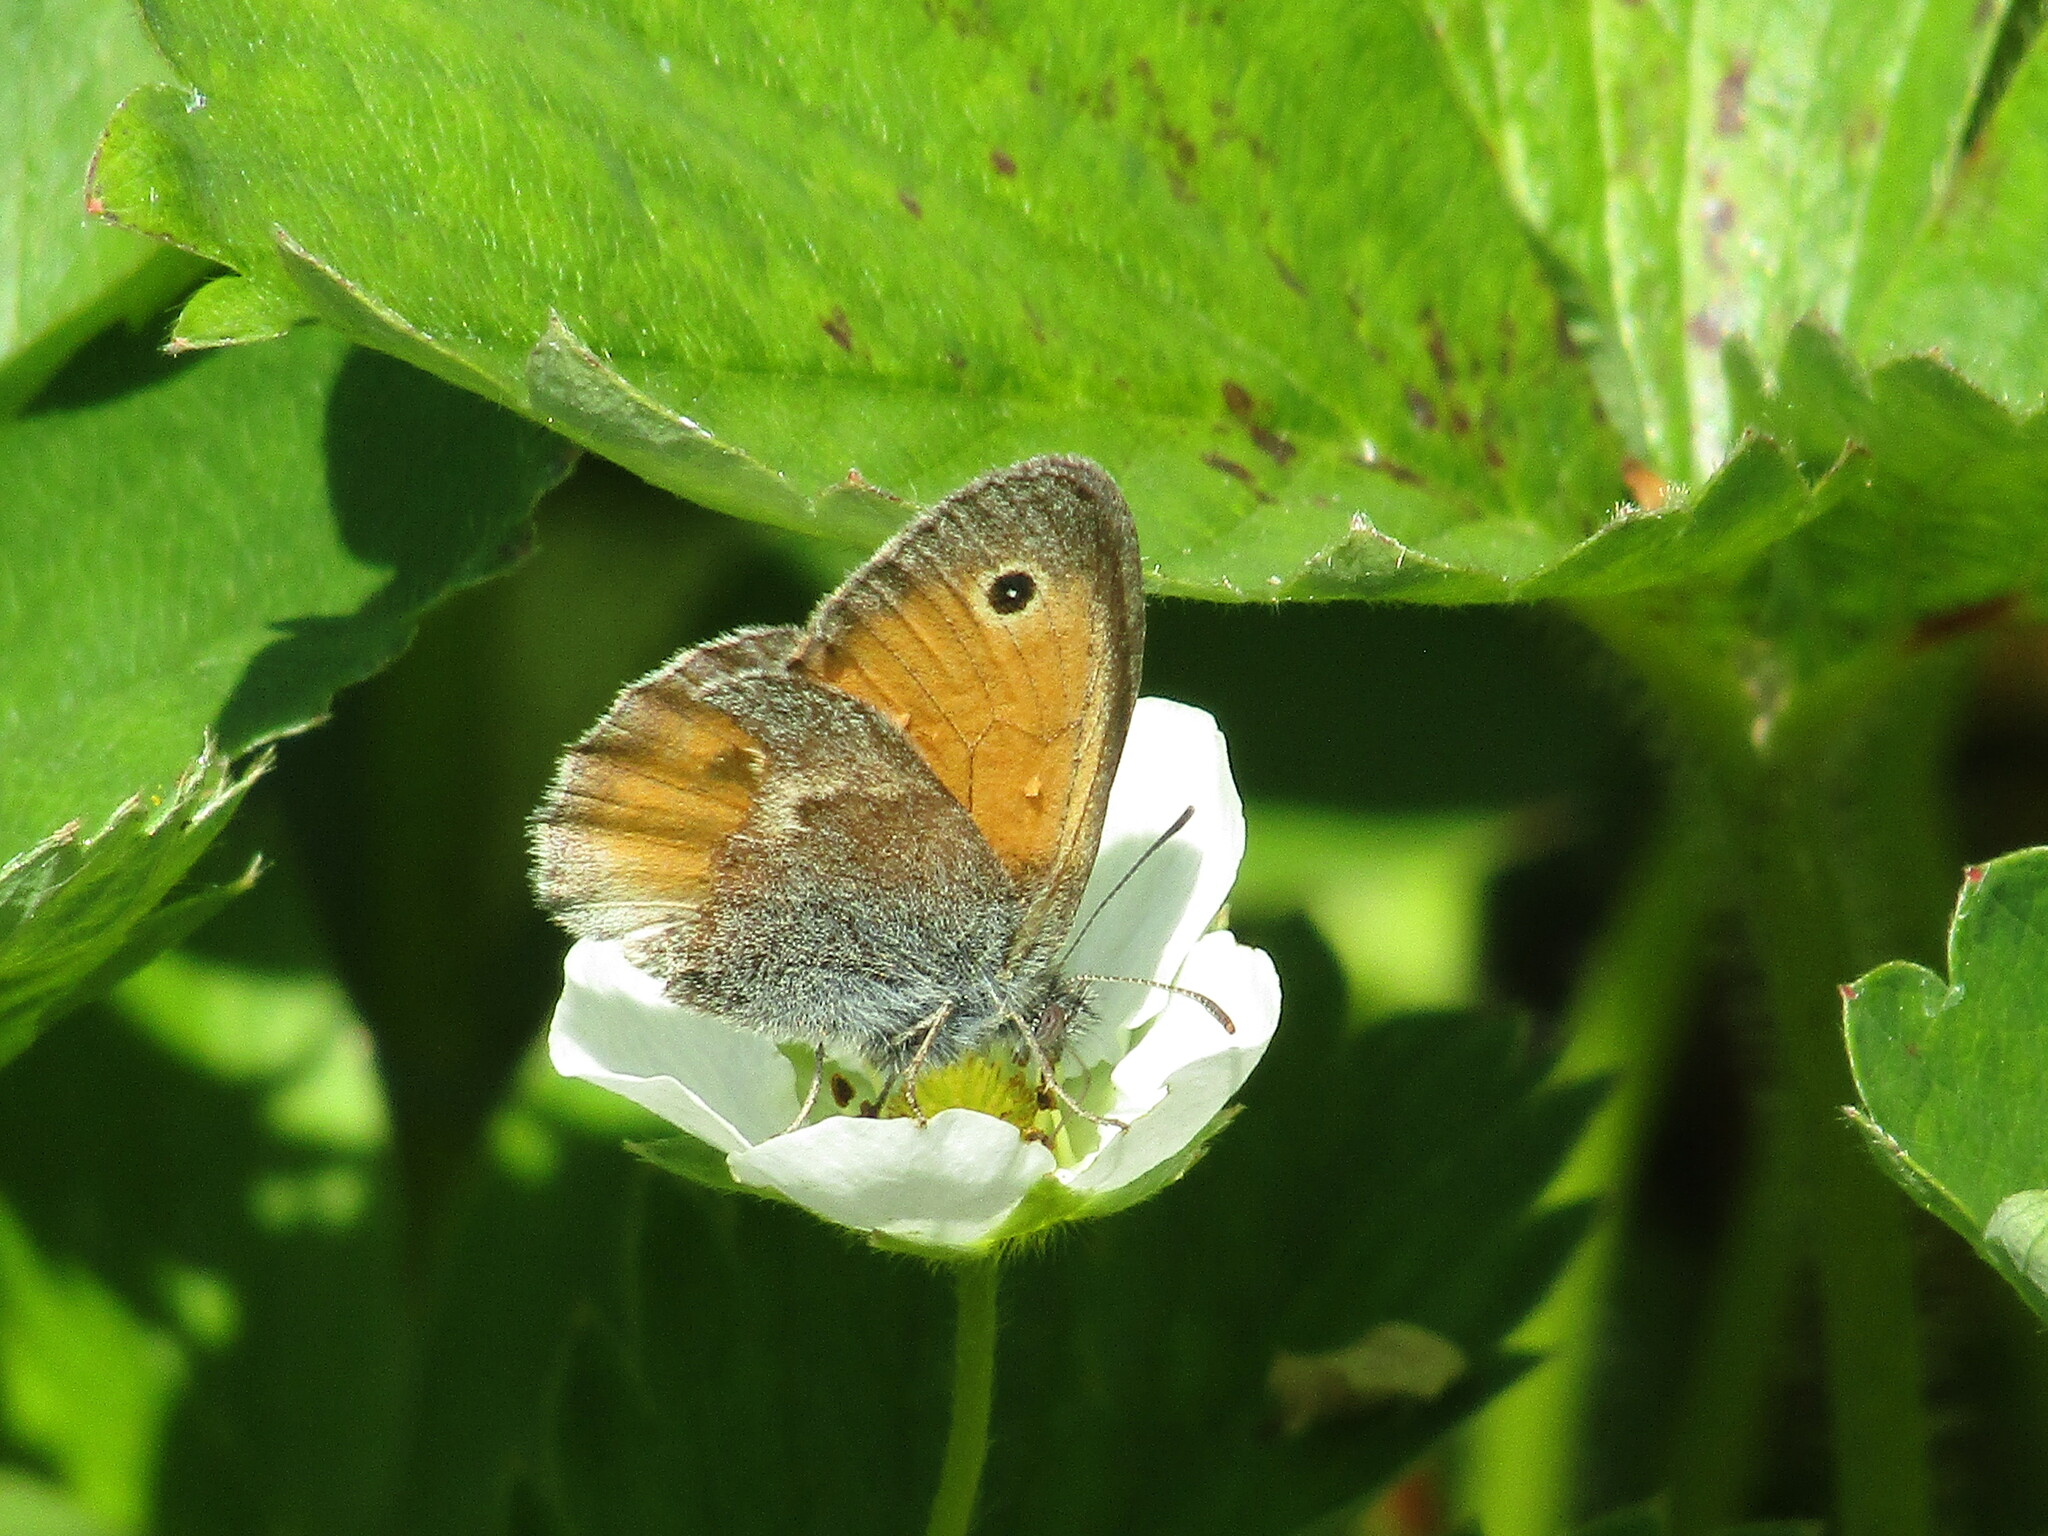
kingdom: Animalia
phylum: Arthropoda
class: Insecta
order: Lepidoptera
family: Nymphalidae
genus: Coenonympha
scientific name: Coenonympha pamphilus
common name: Small heath
